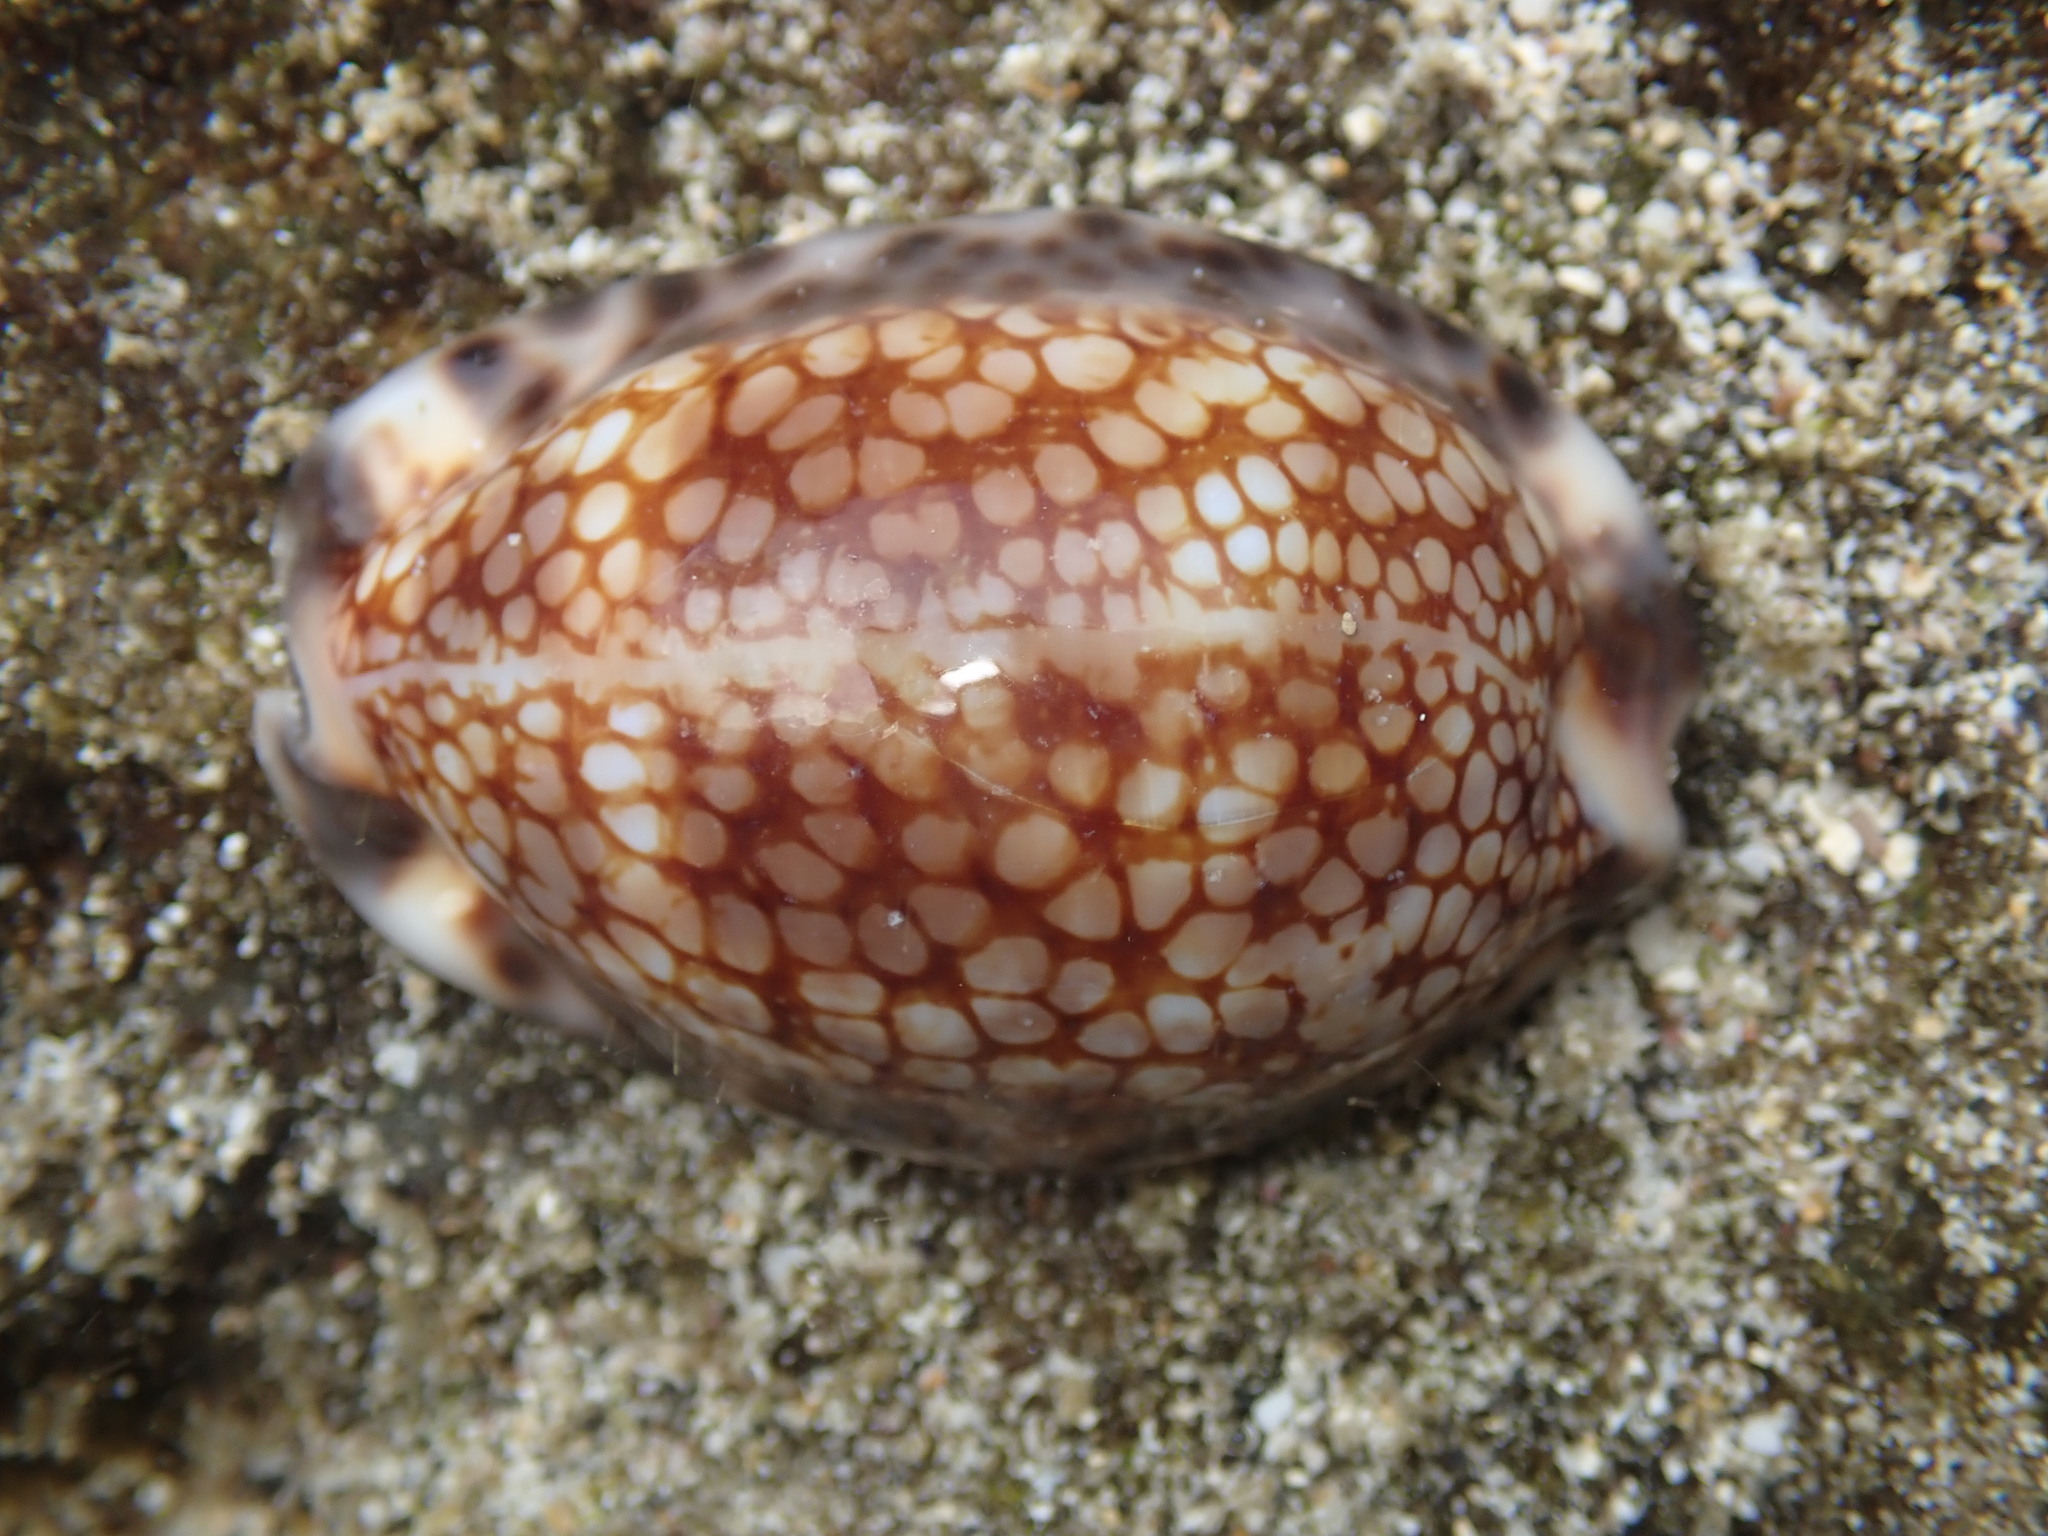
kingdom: Animalia
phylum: Mollusca
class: Gastropoda
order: Littorinimorpha
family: Cypraeidae
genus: Mauritia
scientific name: Mauritia maculifera
